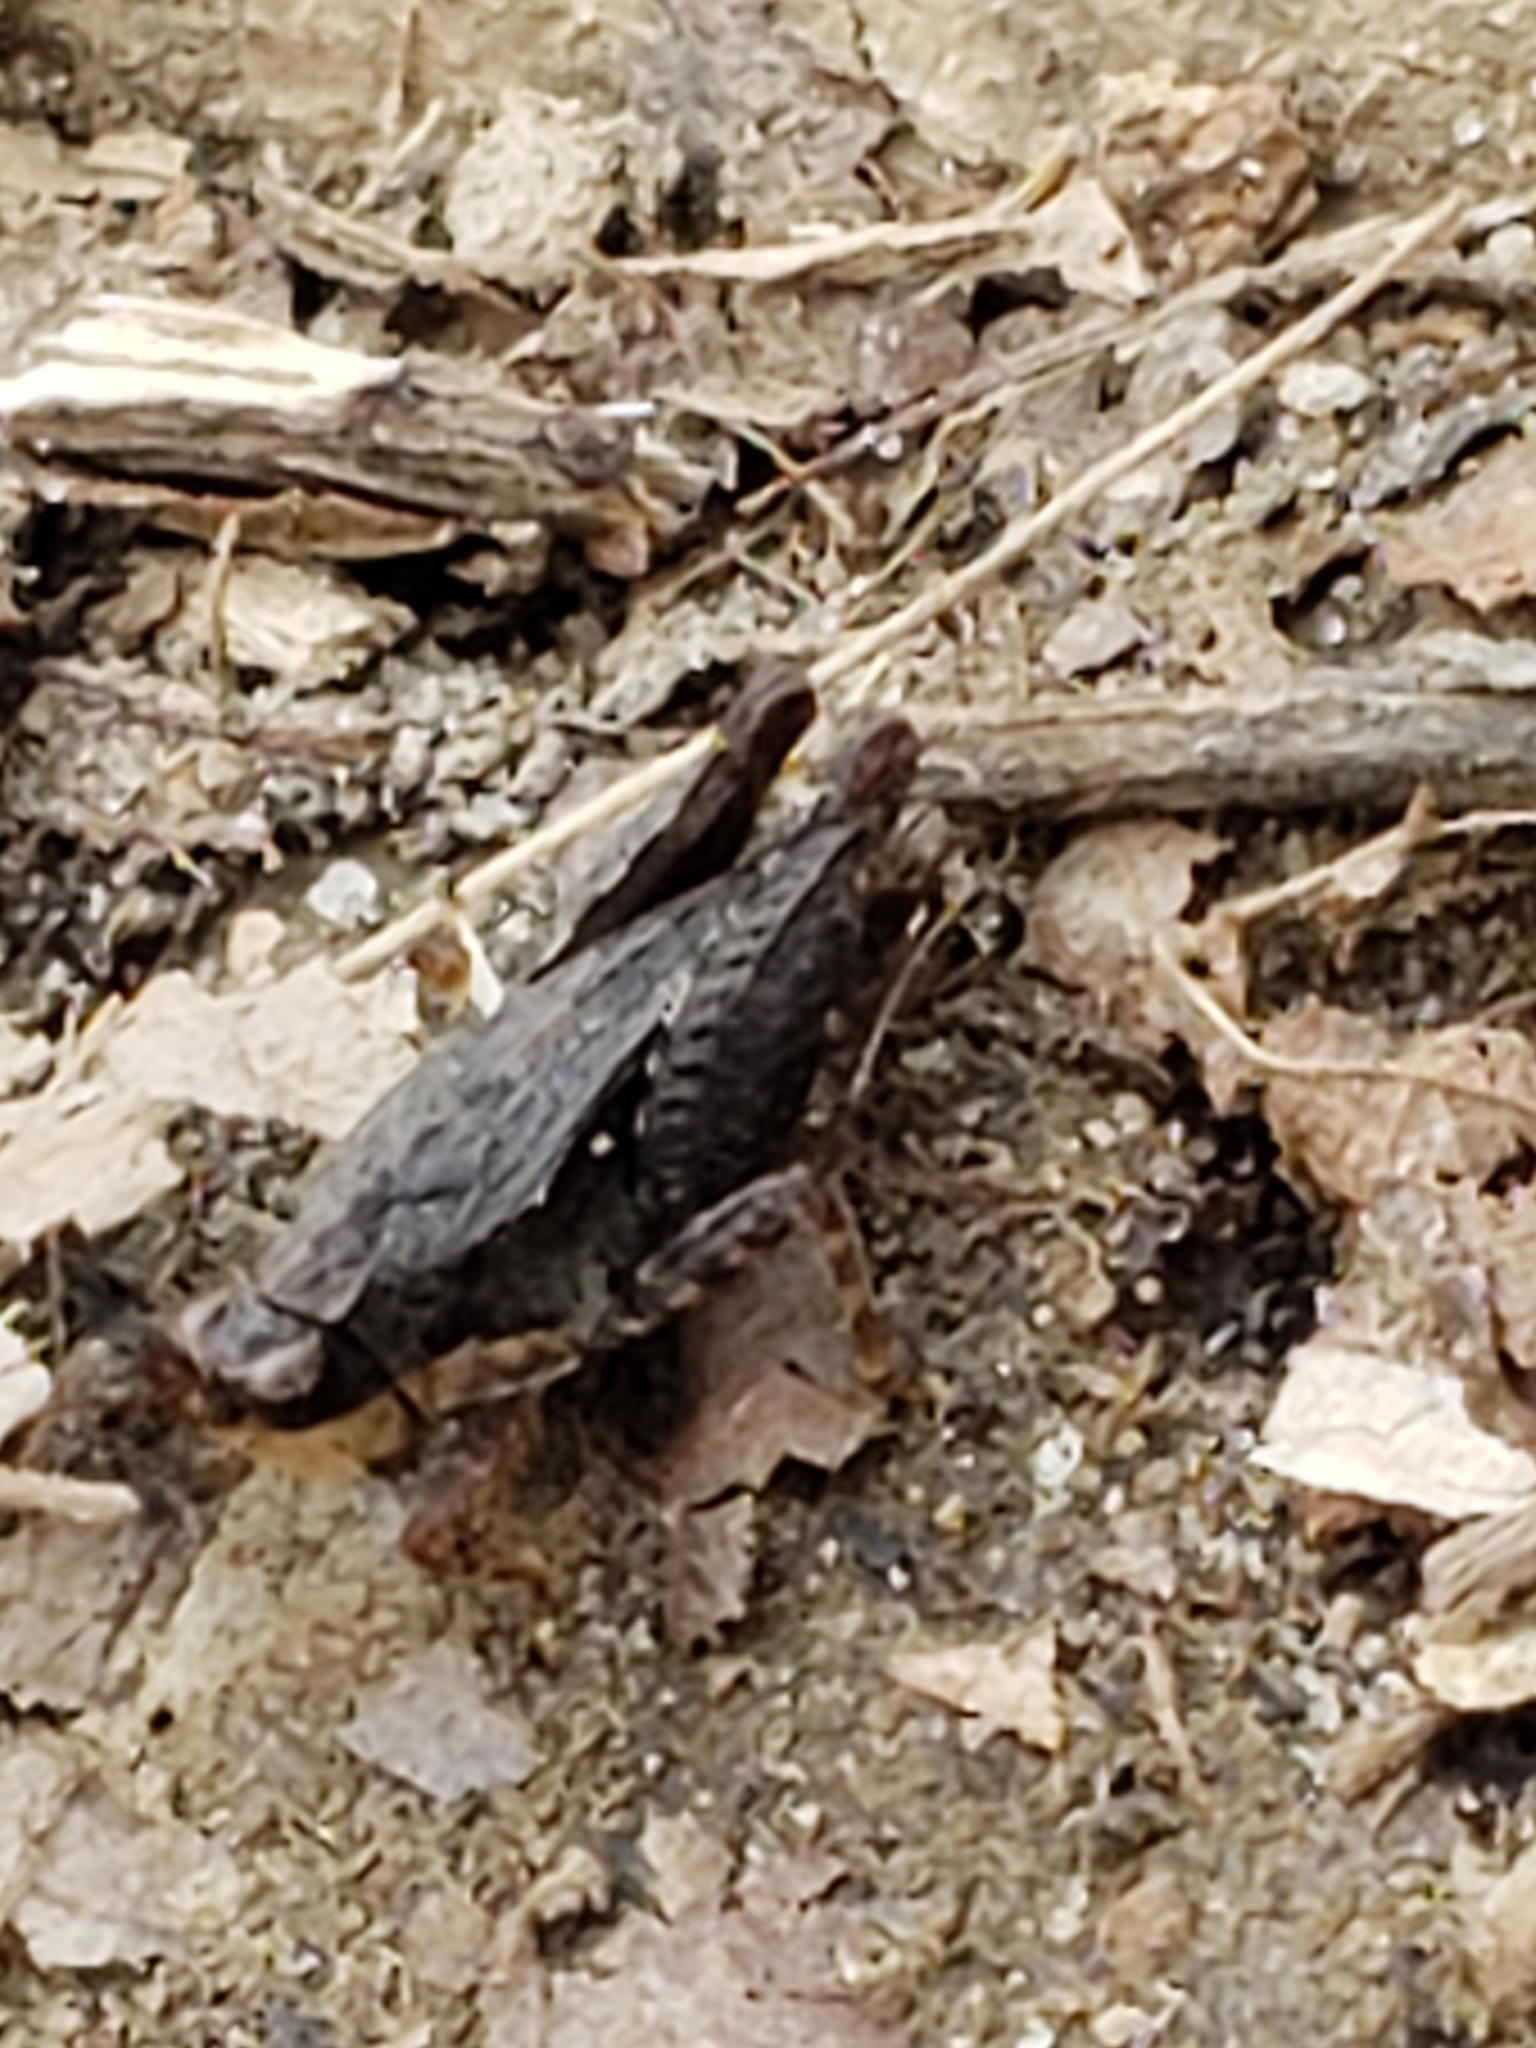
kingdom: Animalia
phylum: Arthropoda
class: Insecta
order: Orthoptera
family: Tetrigidae
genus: Tettigidea
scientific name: Tettigidea laterale
